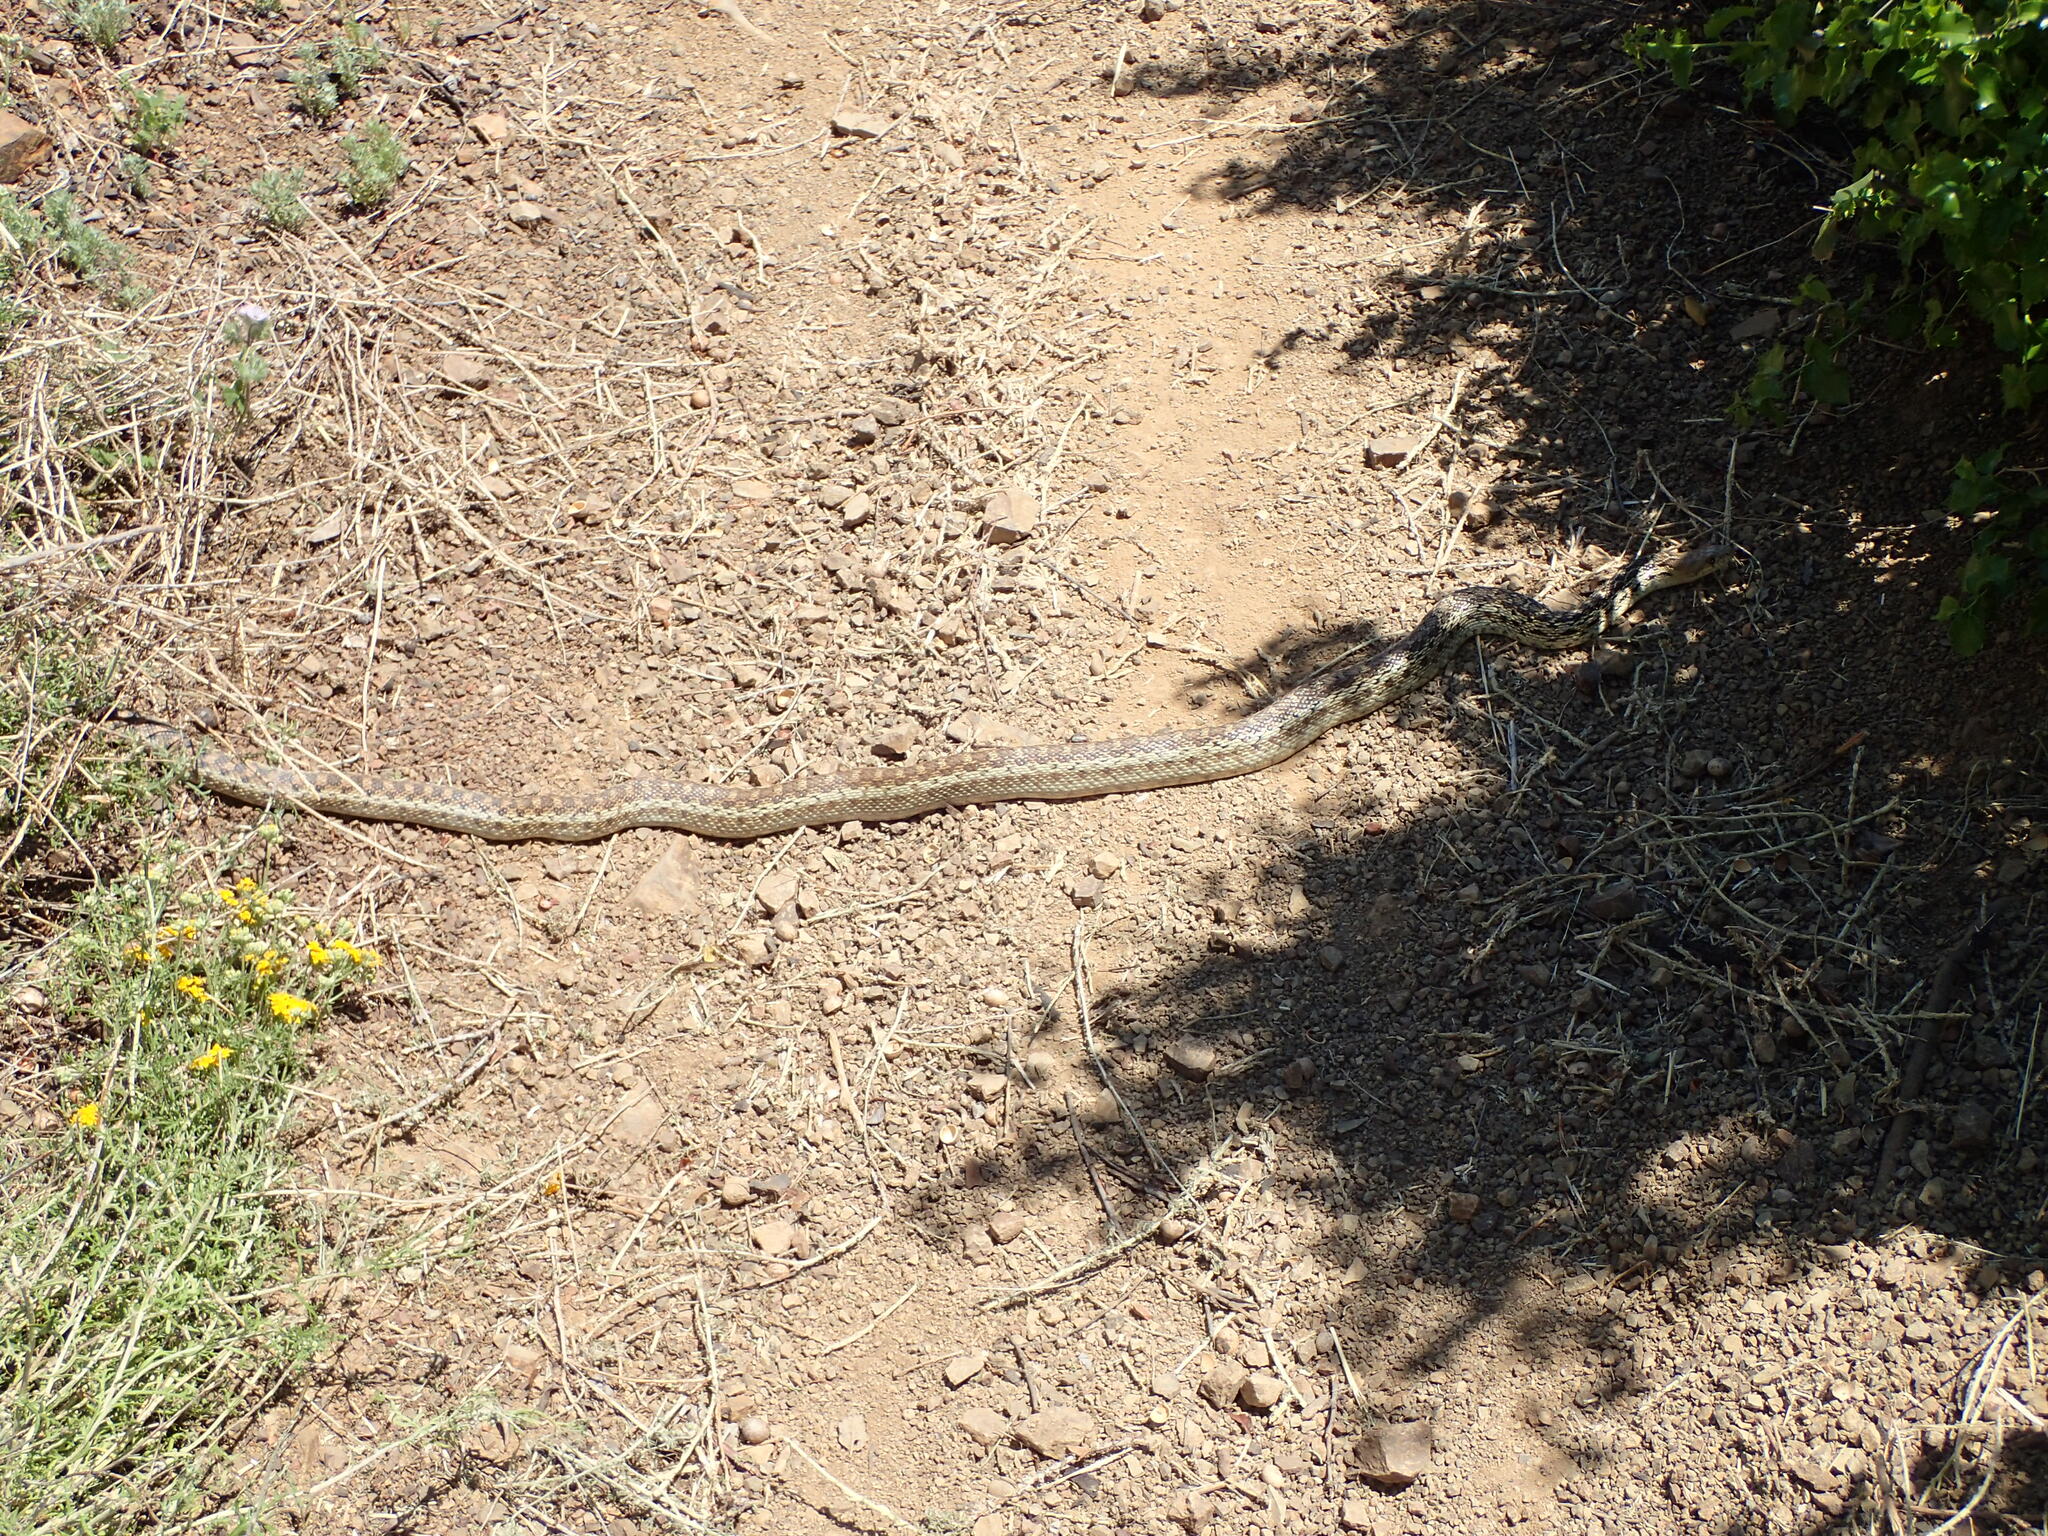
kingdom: Animalia
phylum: Chordata
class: Squamata
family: Colubridae
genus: Pituophis
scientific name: Pituophis catenifer
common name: Gopher snake
